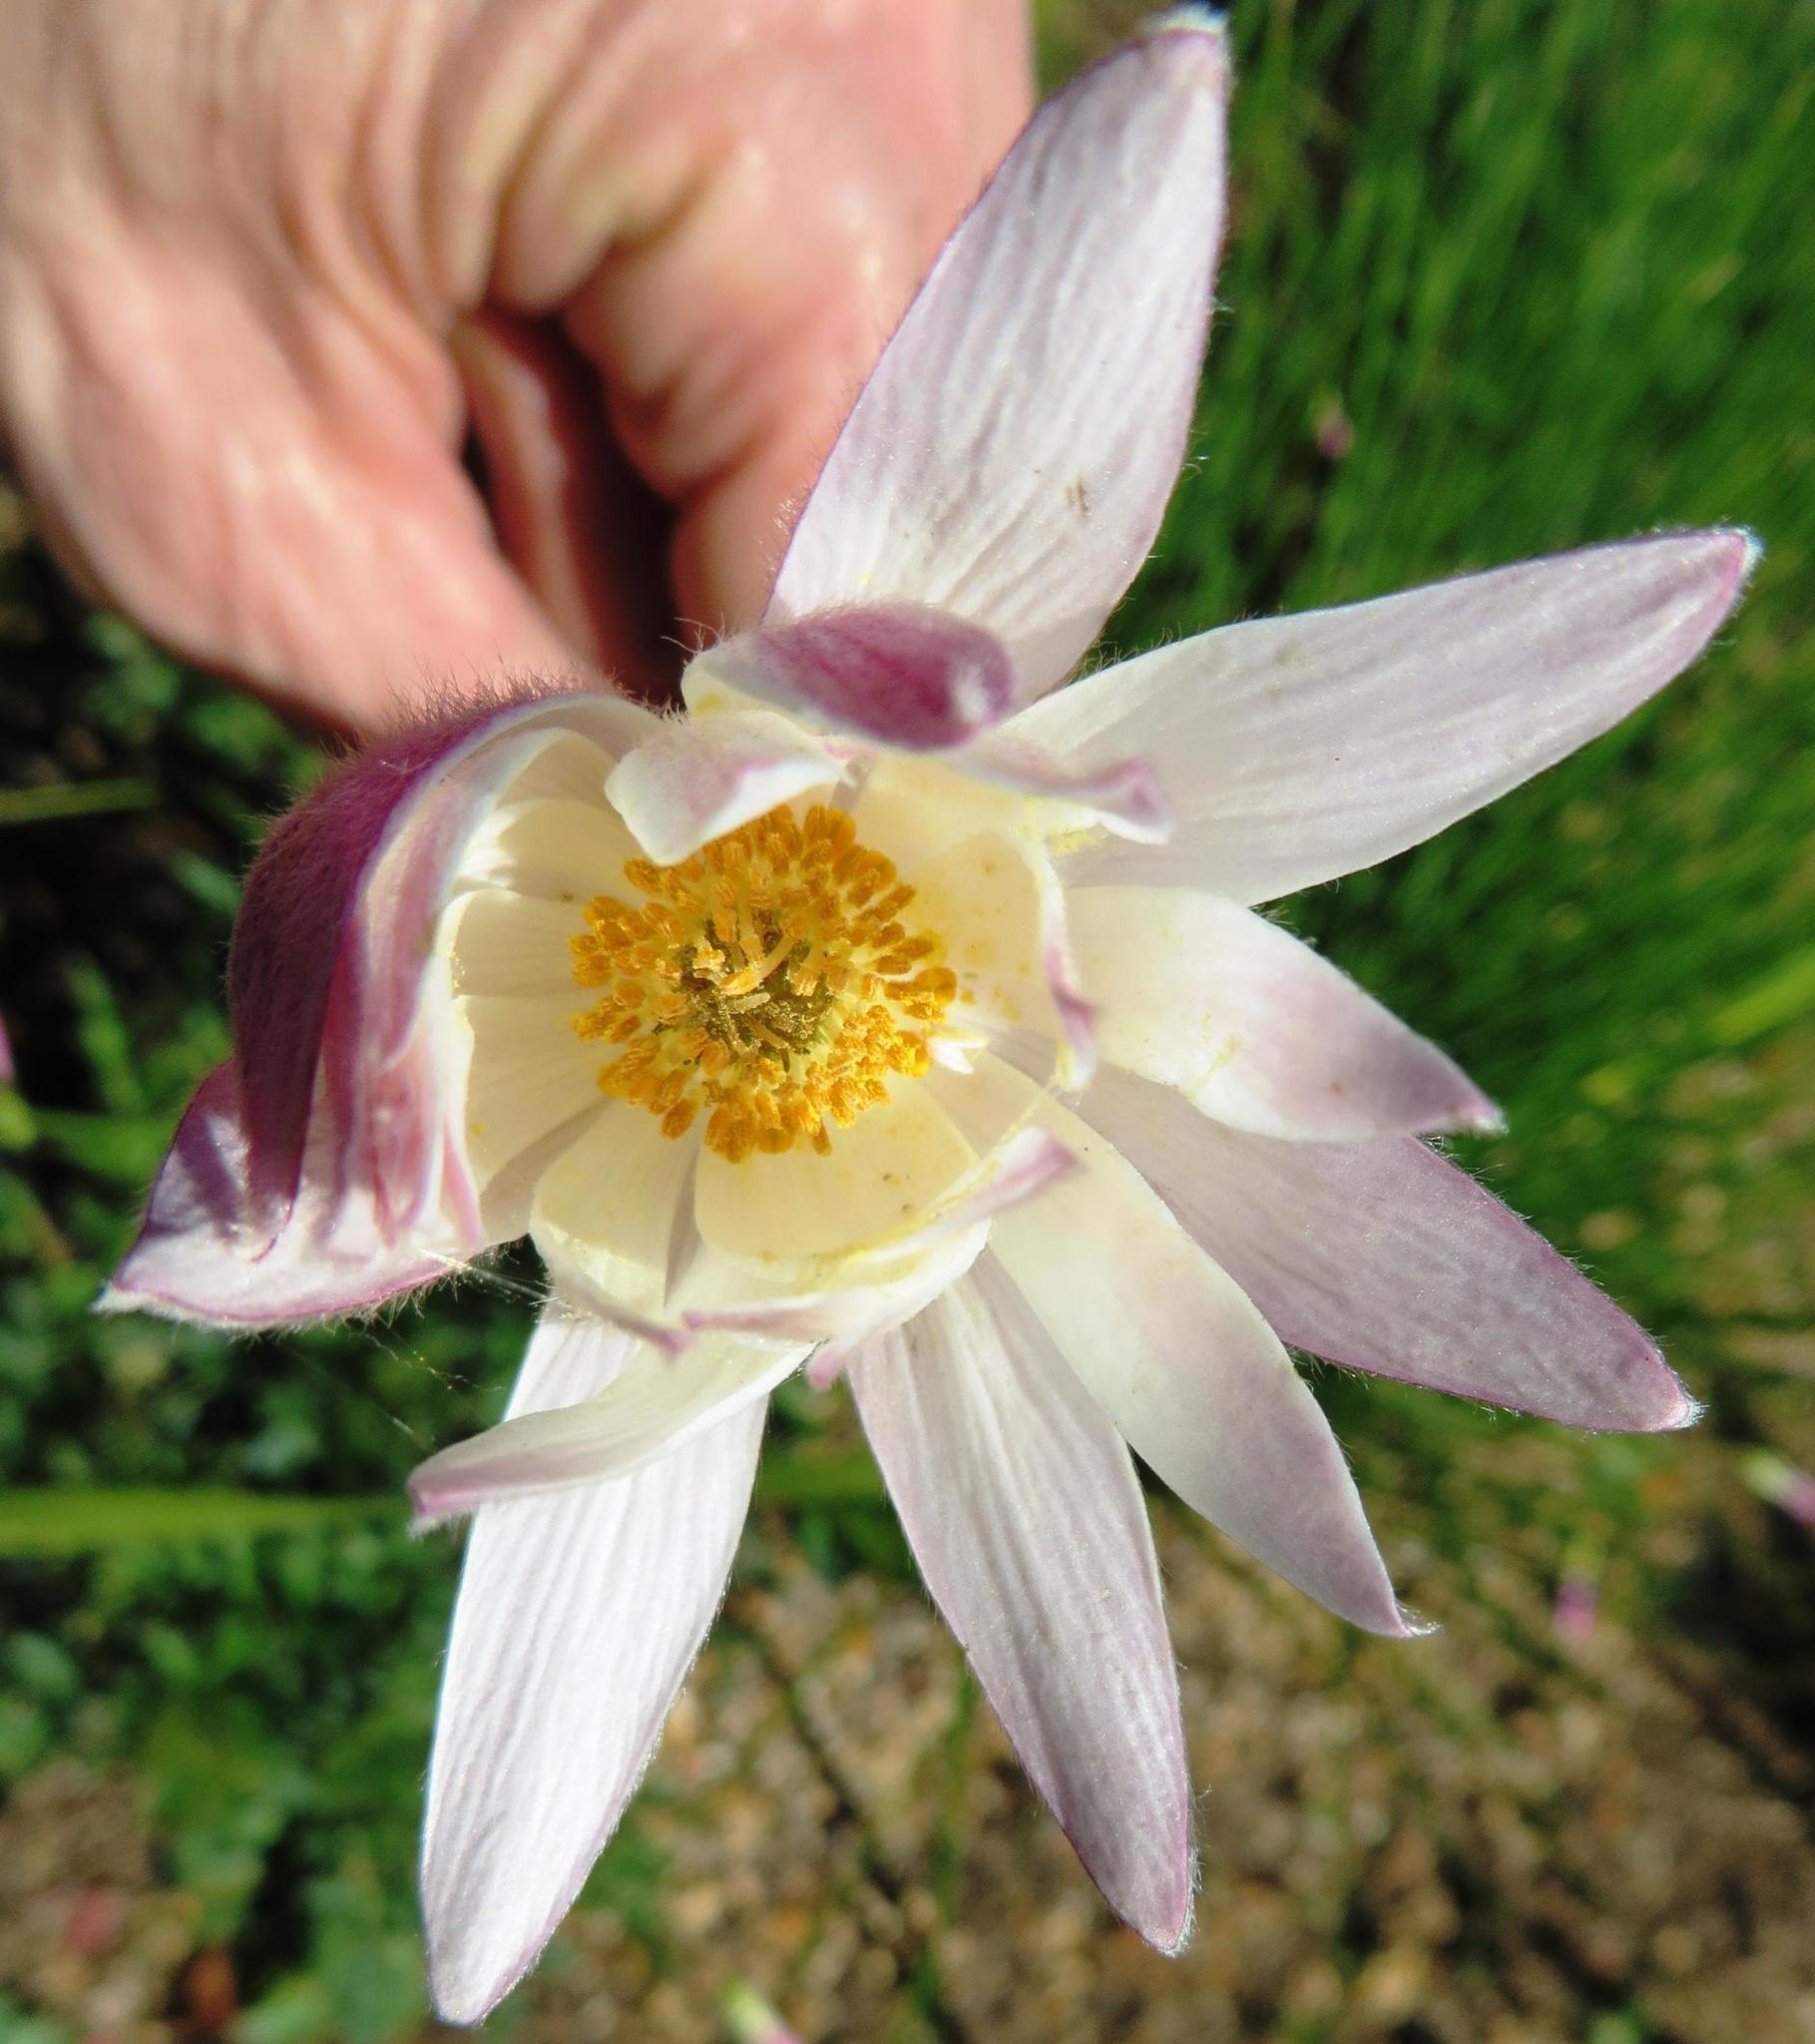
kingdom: Plantae
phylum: Tracheophyta
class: Magnoliopsida
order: Ranunculales
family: Ranunculaceae
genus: Knowltonia
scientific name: Knowltonia tenuifolia
